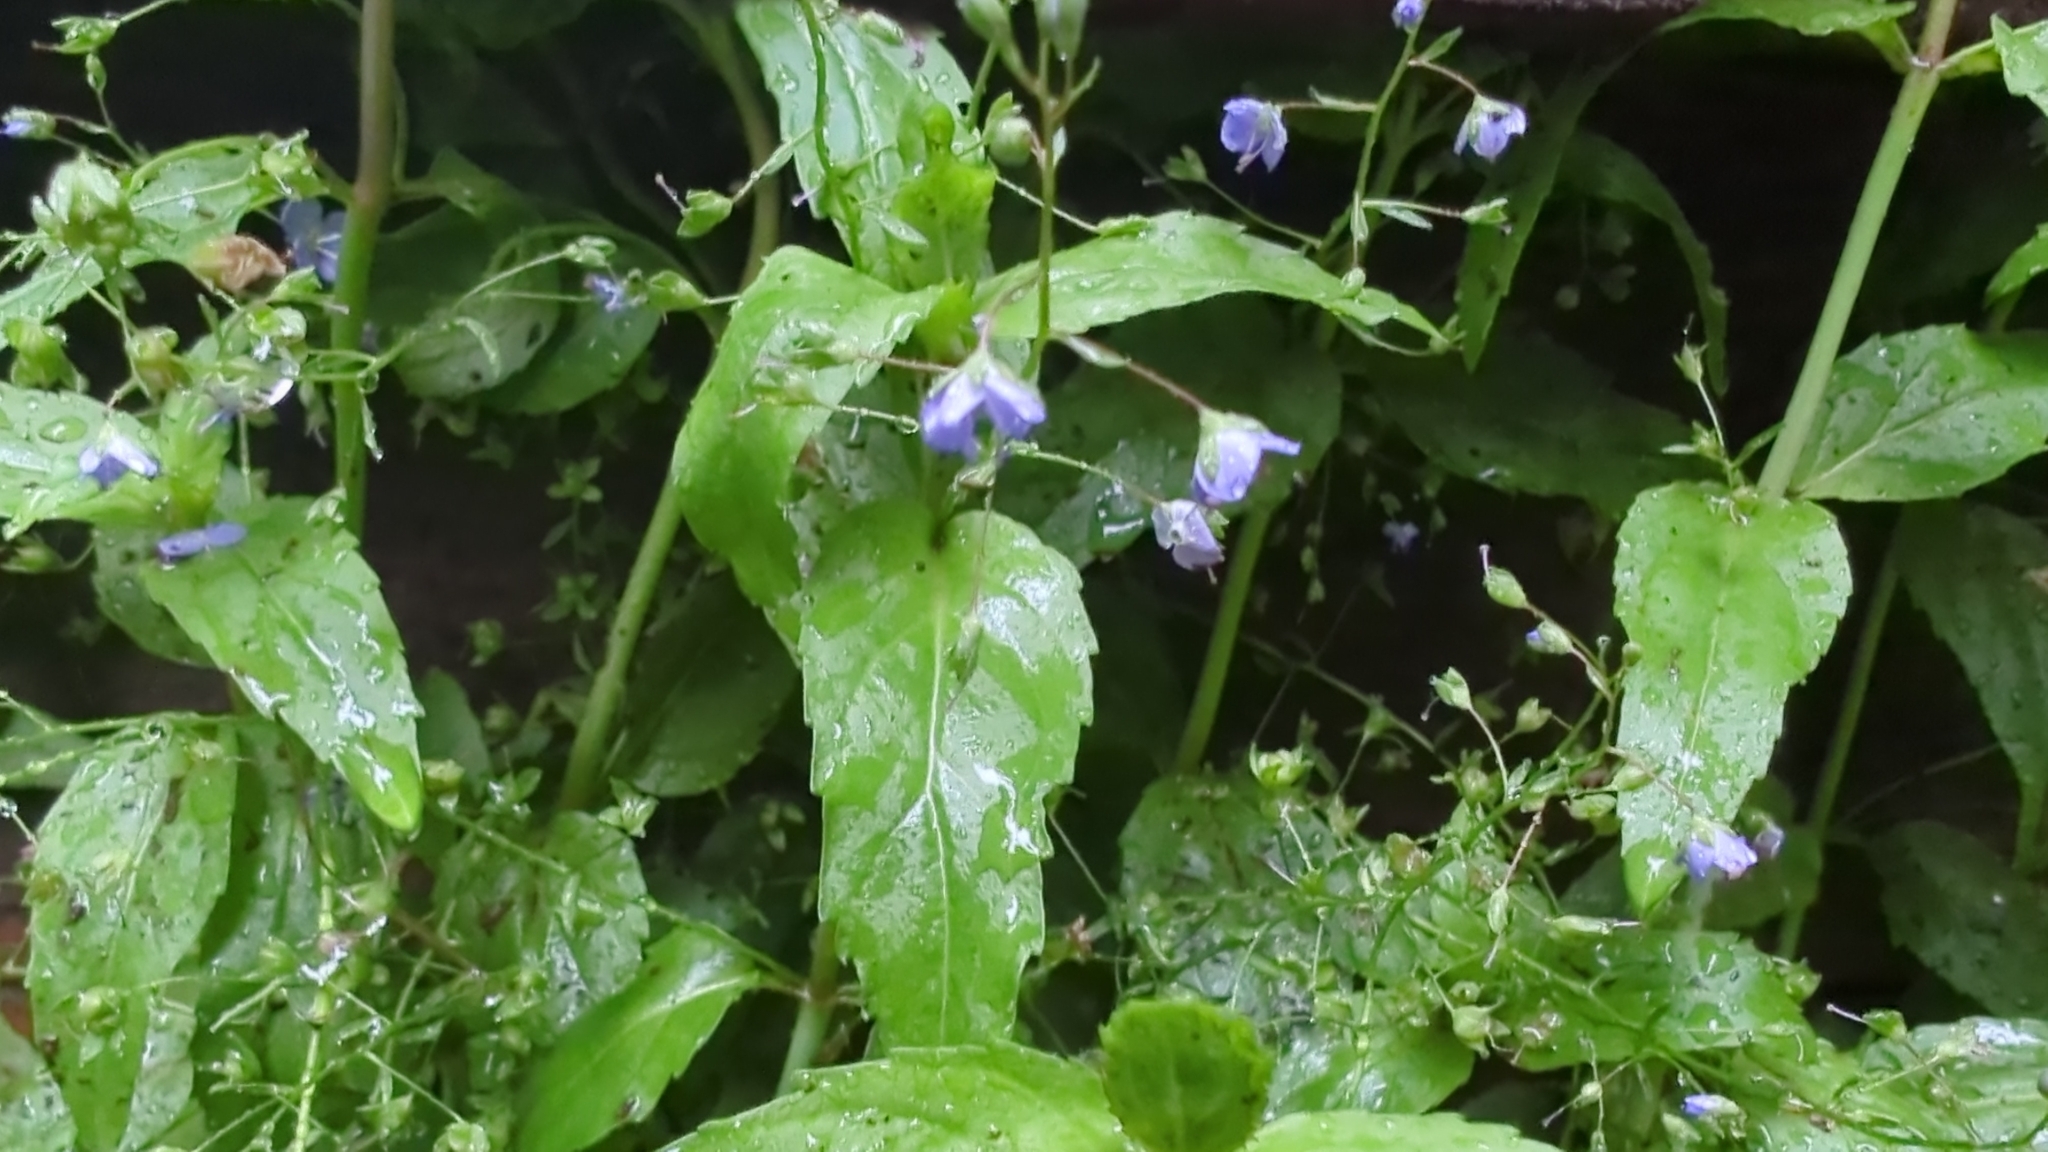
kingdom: Plantae
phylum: Tracheophyta
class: Magnoliopsida
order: Lamiales
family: Plantaginaceae
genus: Veronica
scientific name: Veronica americana
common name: American brooklime
